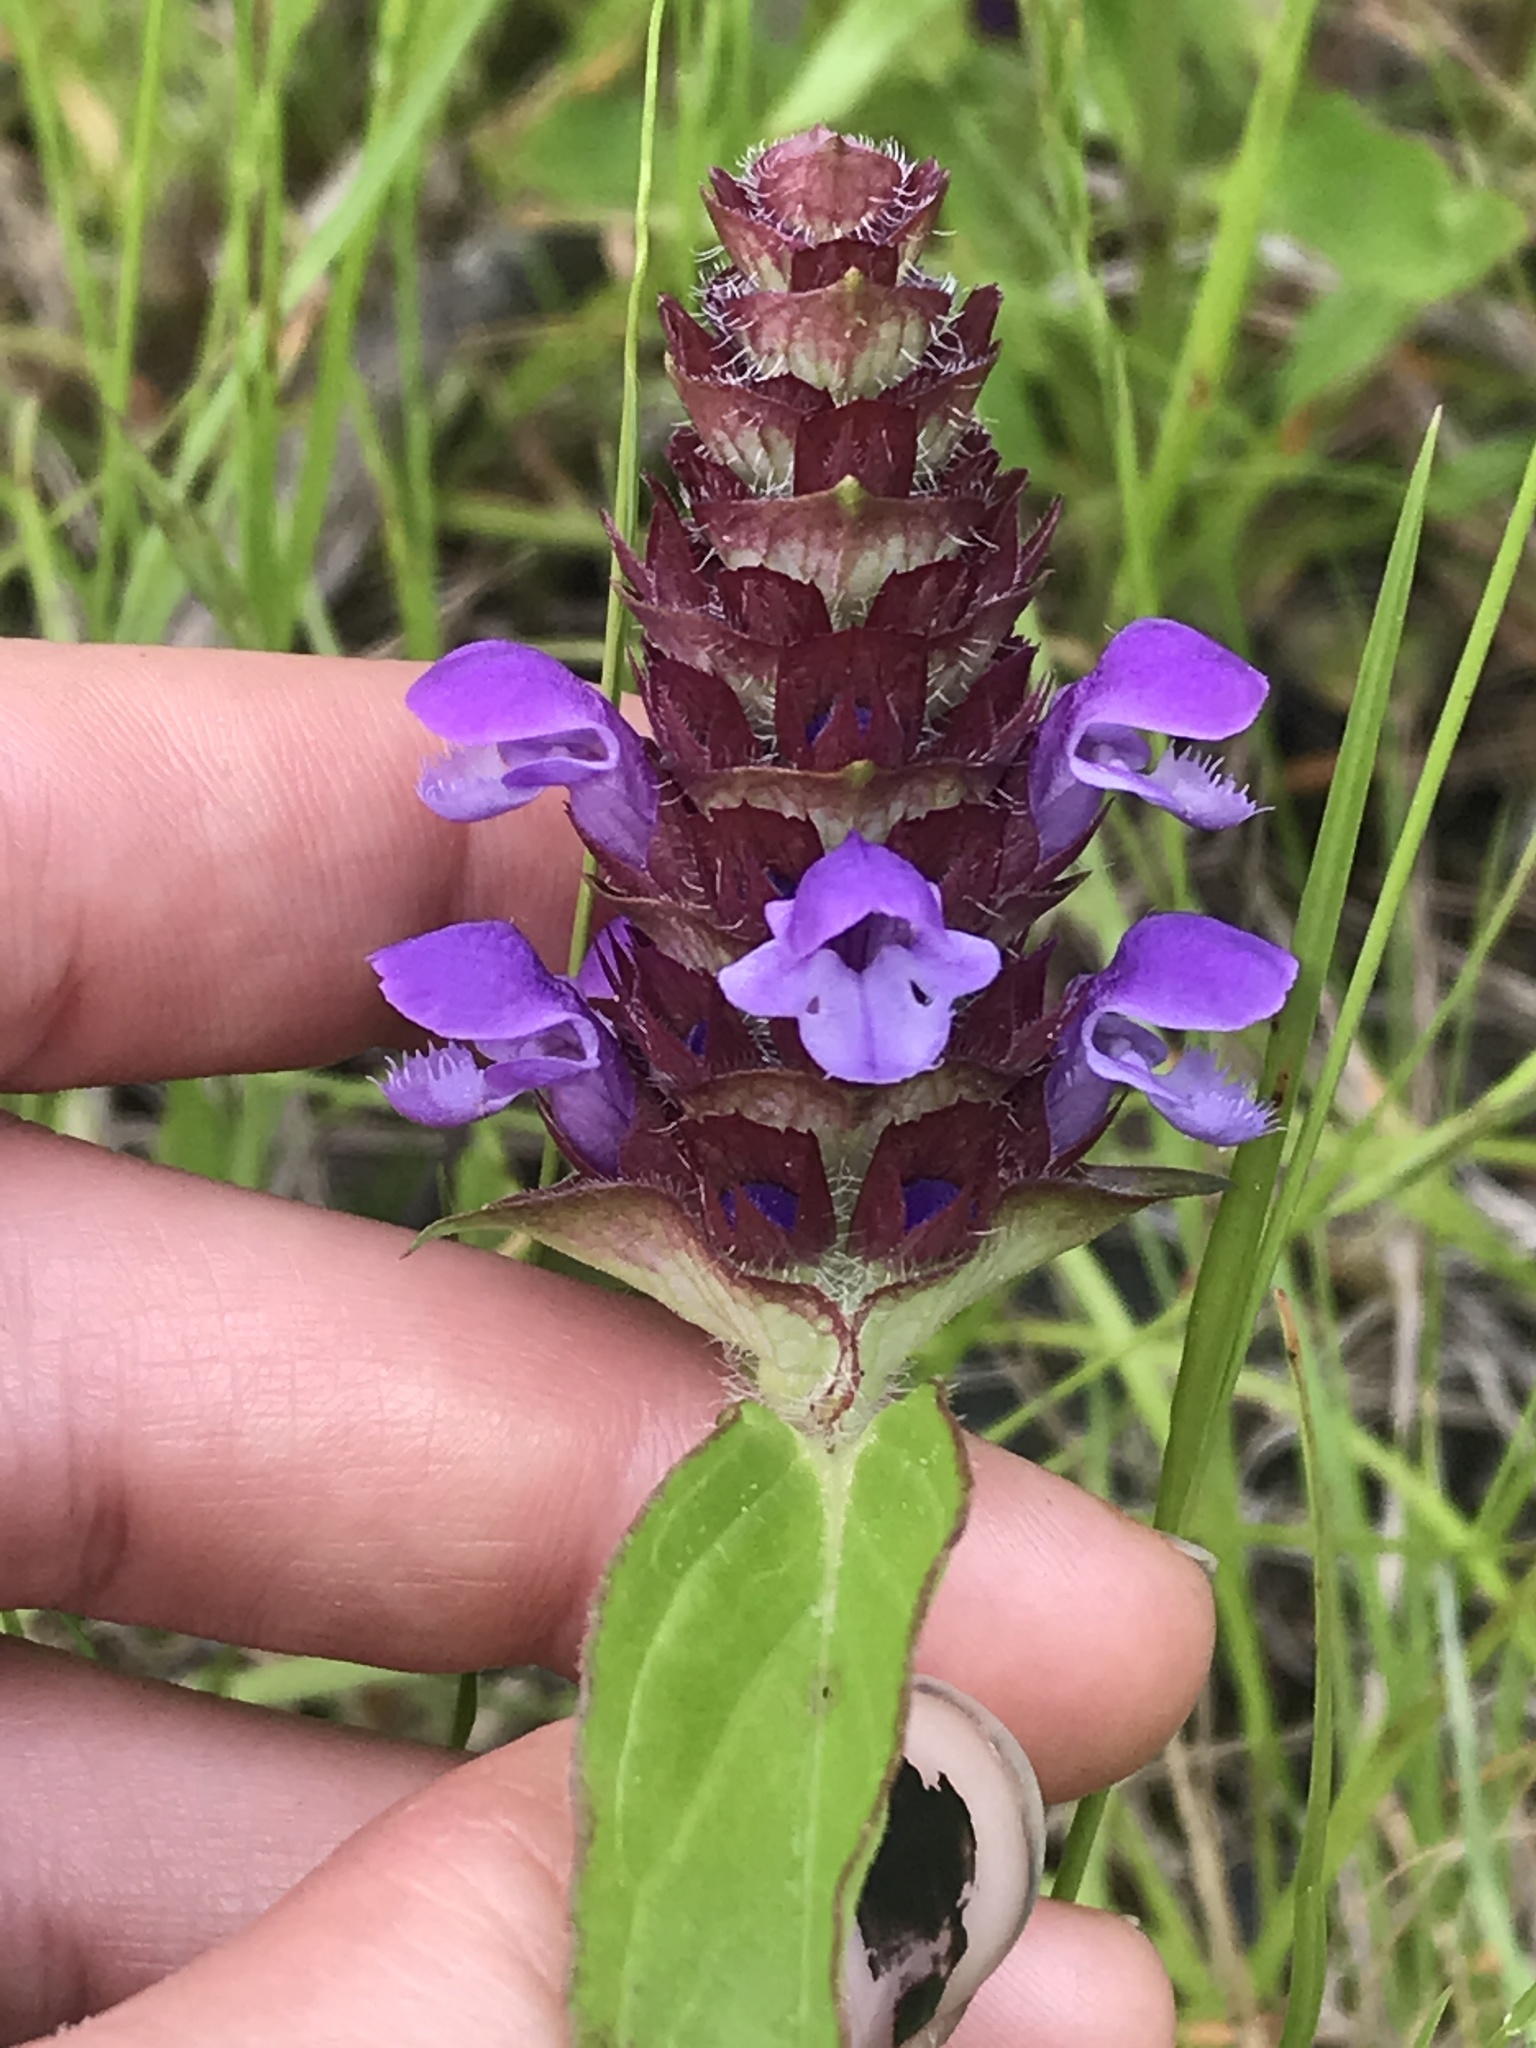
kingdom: Plantae
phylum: Tracheophyta
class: Magnoliopsida
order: Lamiales
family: Lamiaceae
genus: Prunella
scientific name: Prunella vulgaris
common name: Heal-all
